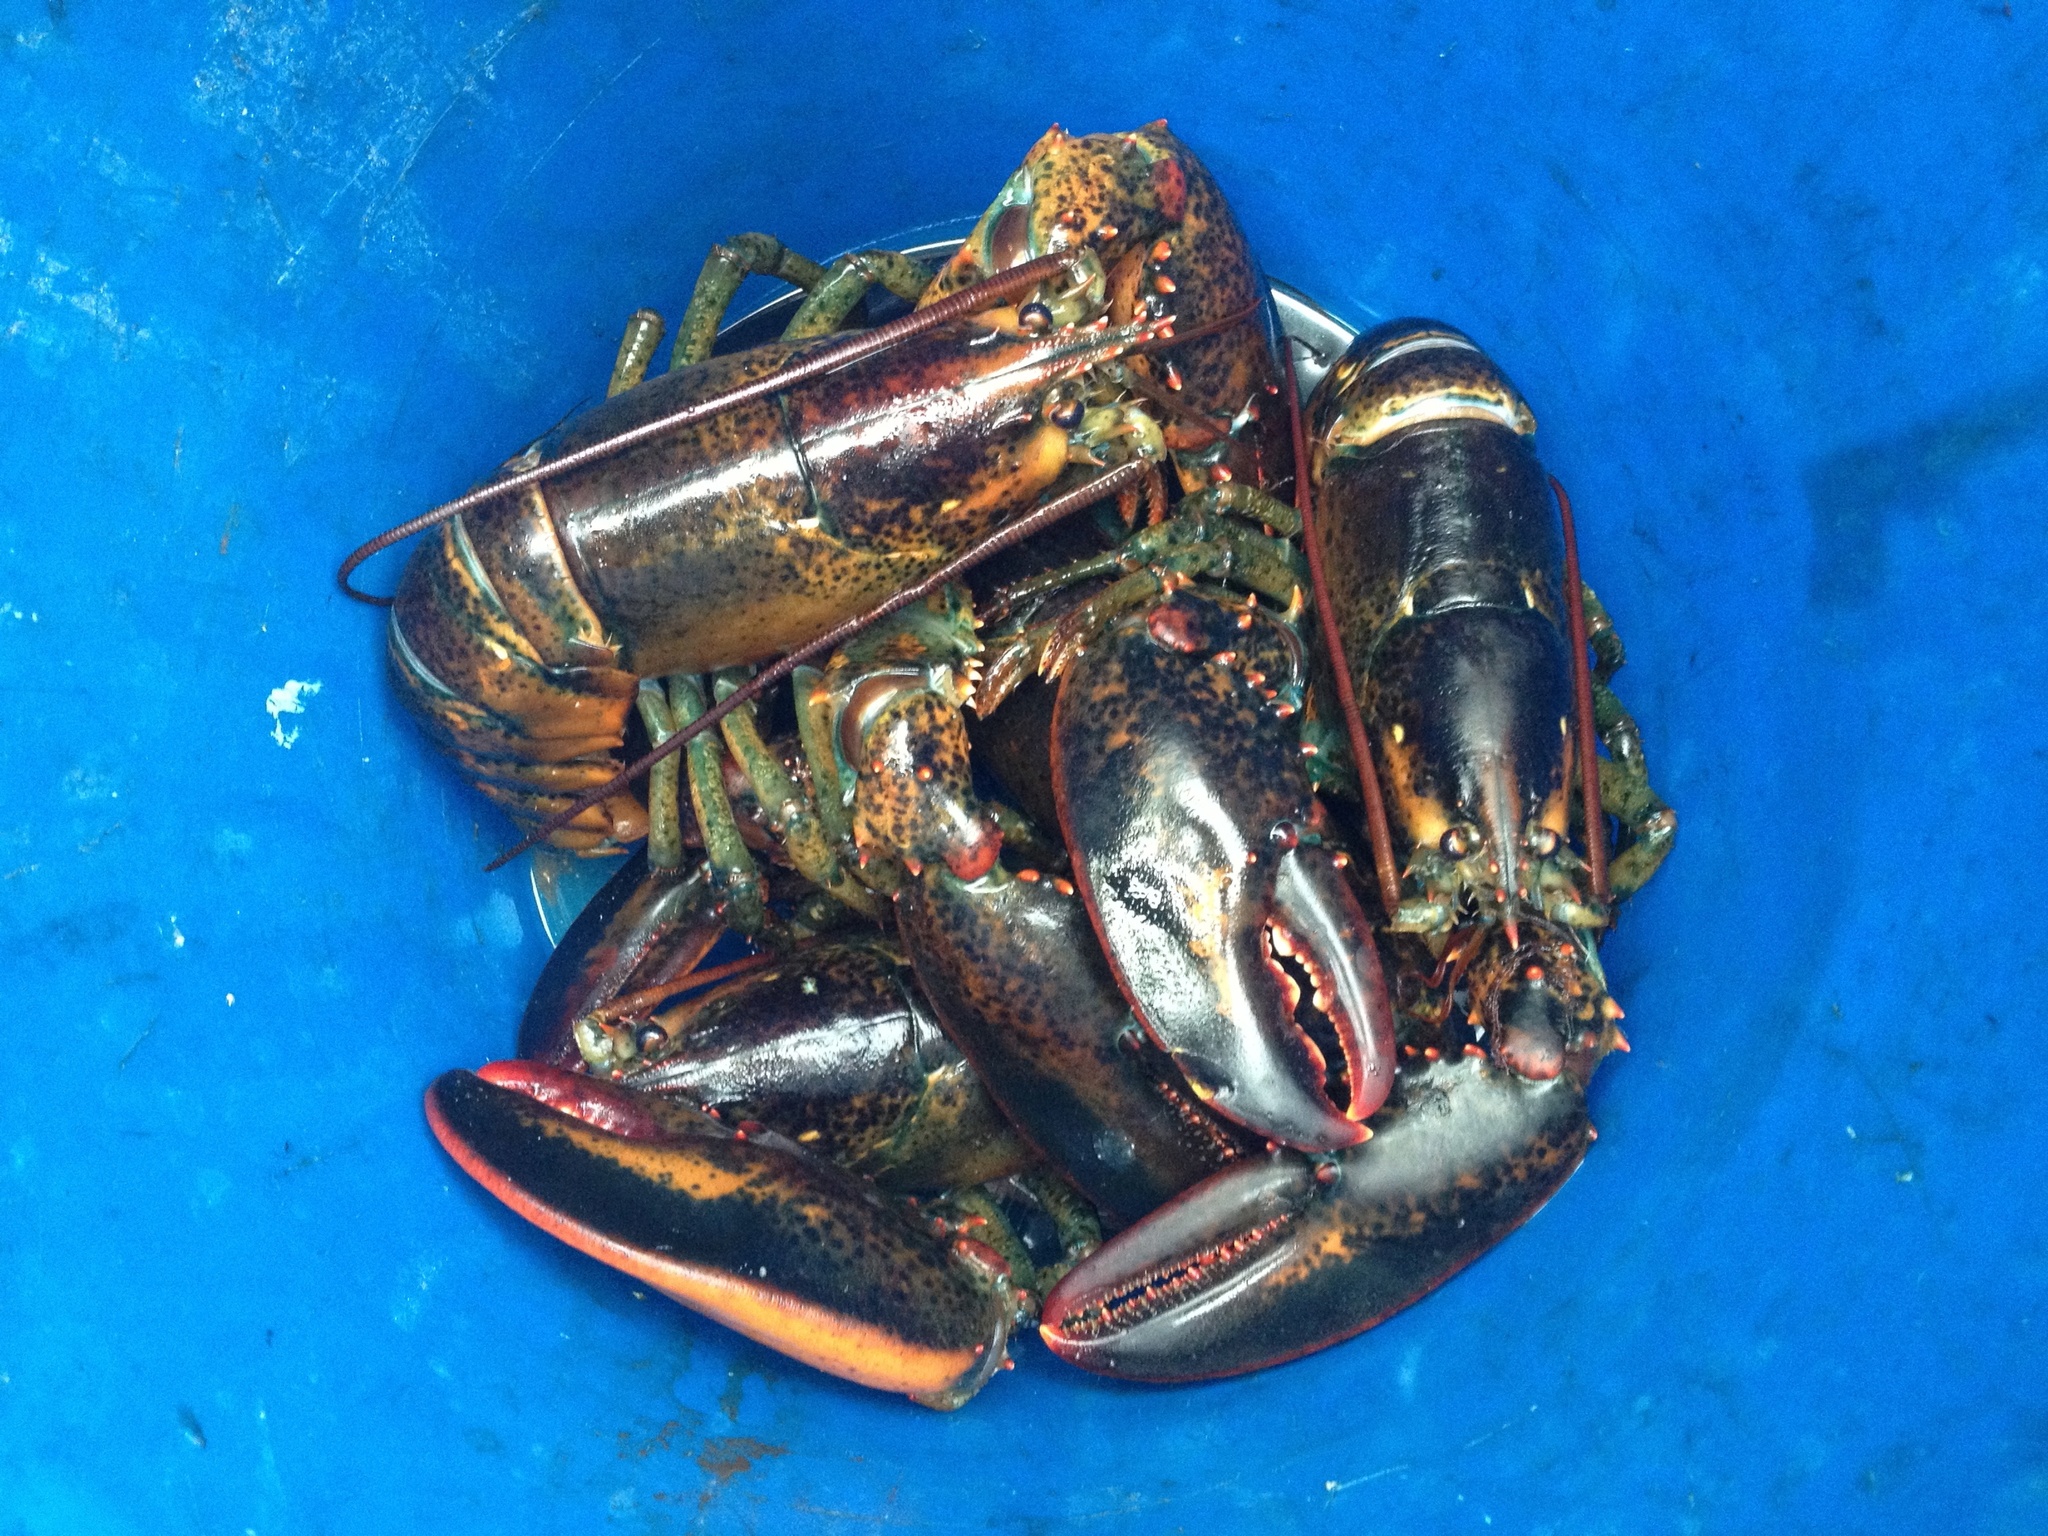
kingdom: Animalia
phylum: Arthropoda
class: Malacostraca
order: Decapoda
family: Nephropidae
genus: Homarus
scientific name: Homarus americanus
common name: American lobster
